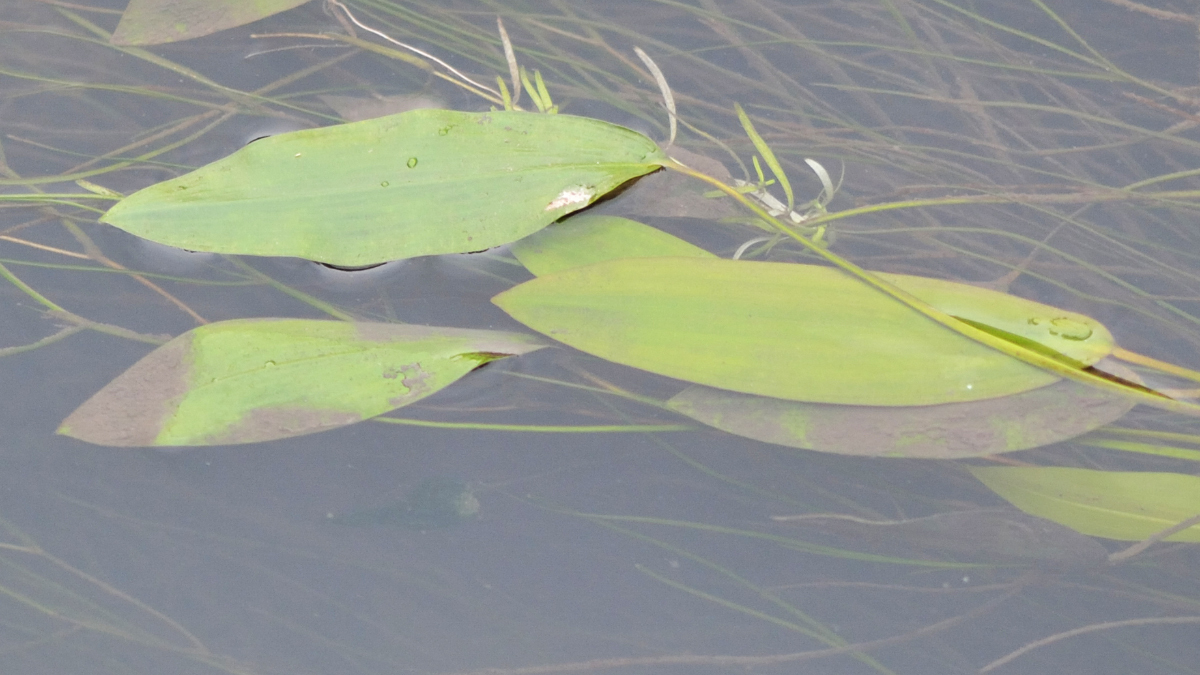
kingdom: Plantae
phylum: Tracheophyta
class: Liliopsida
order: Alismatales
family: Potamogetonaceae
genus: Potamogeton
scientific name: Potamogeton natans
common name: Broad-leaved pondweed
